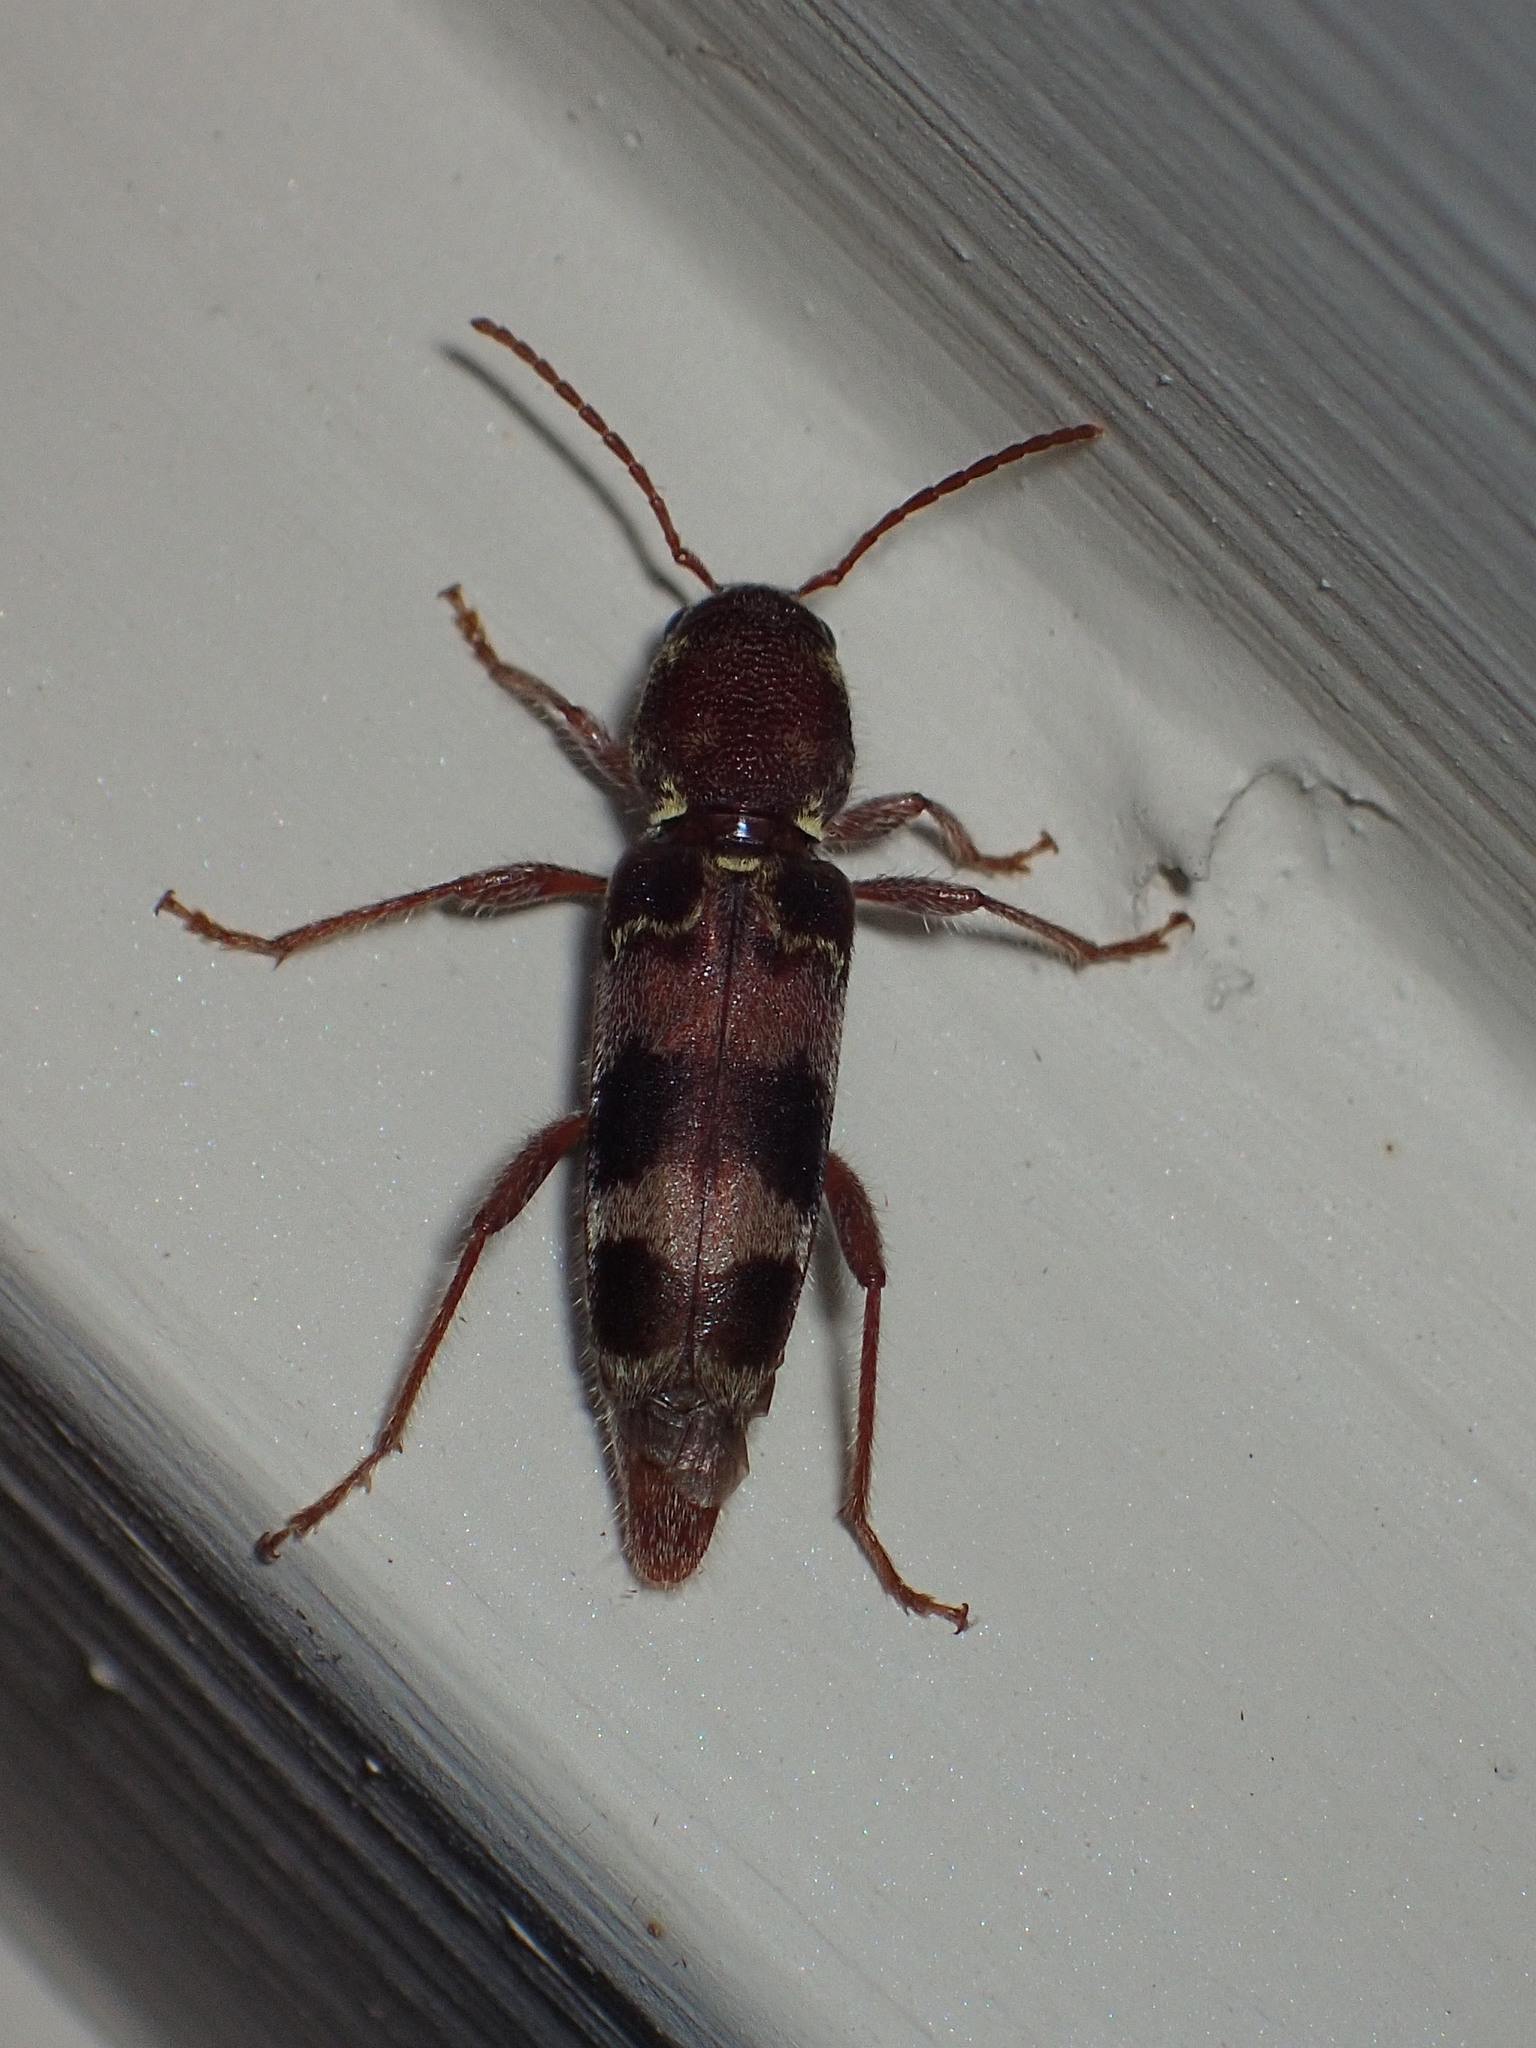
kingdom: Animalia
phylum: Arthropoda
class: Insecta
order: Coleoptera
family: Cerambycidae
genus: Xylotrechus
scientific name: Xylotrechus colonus
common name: Long-horned beetle
